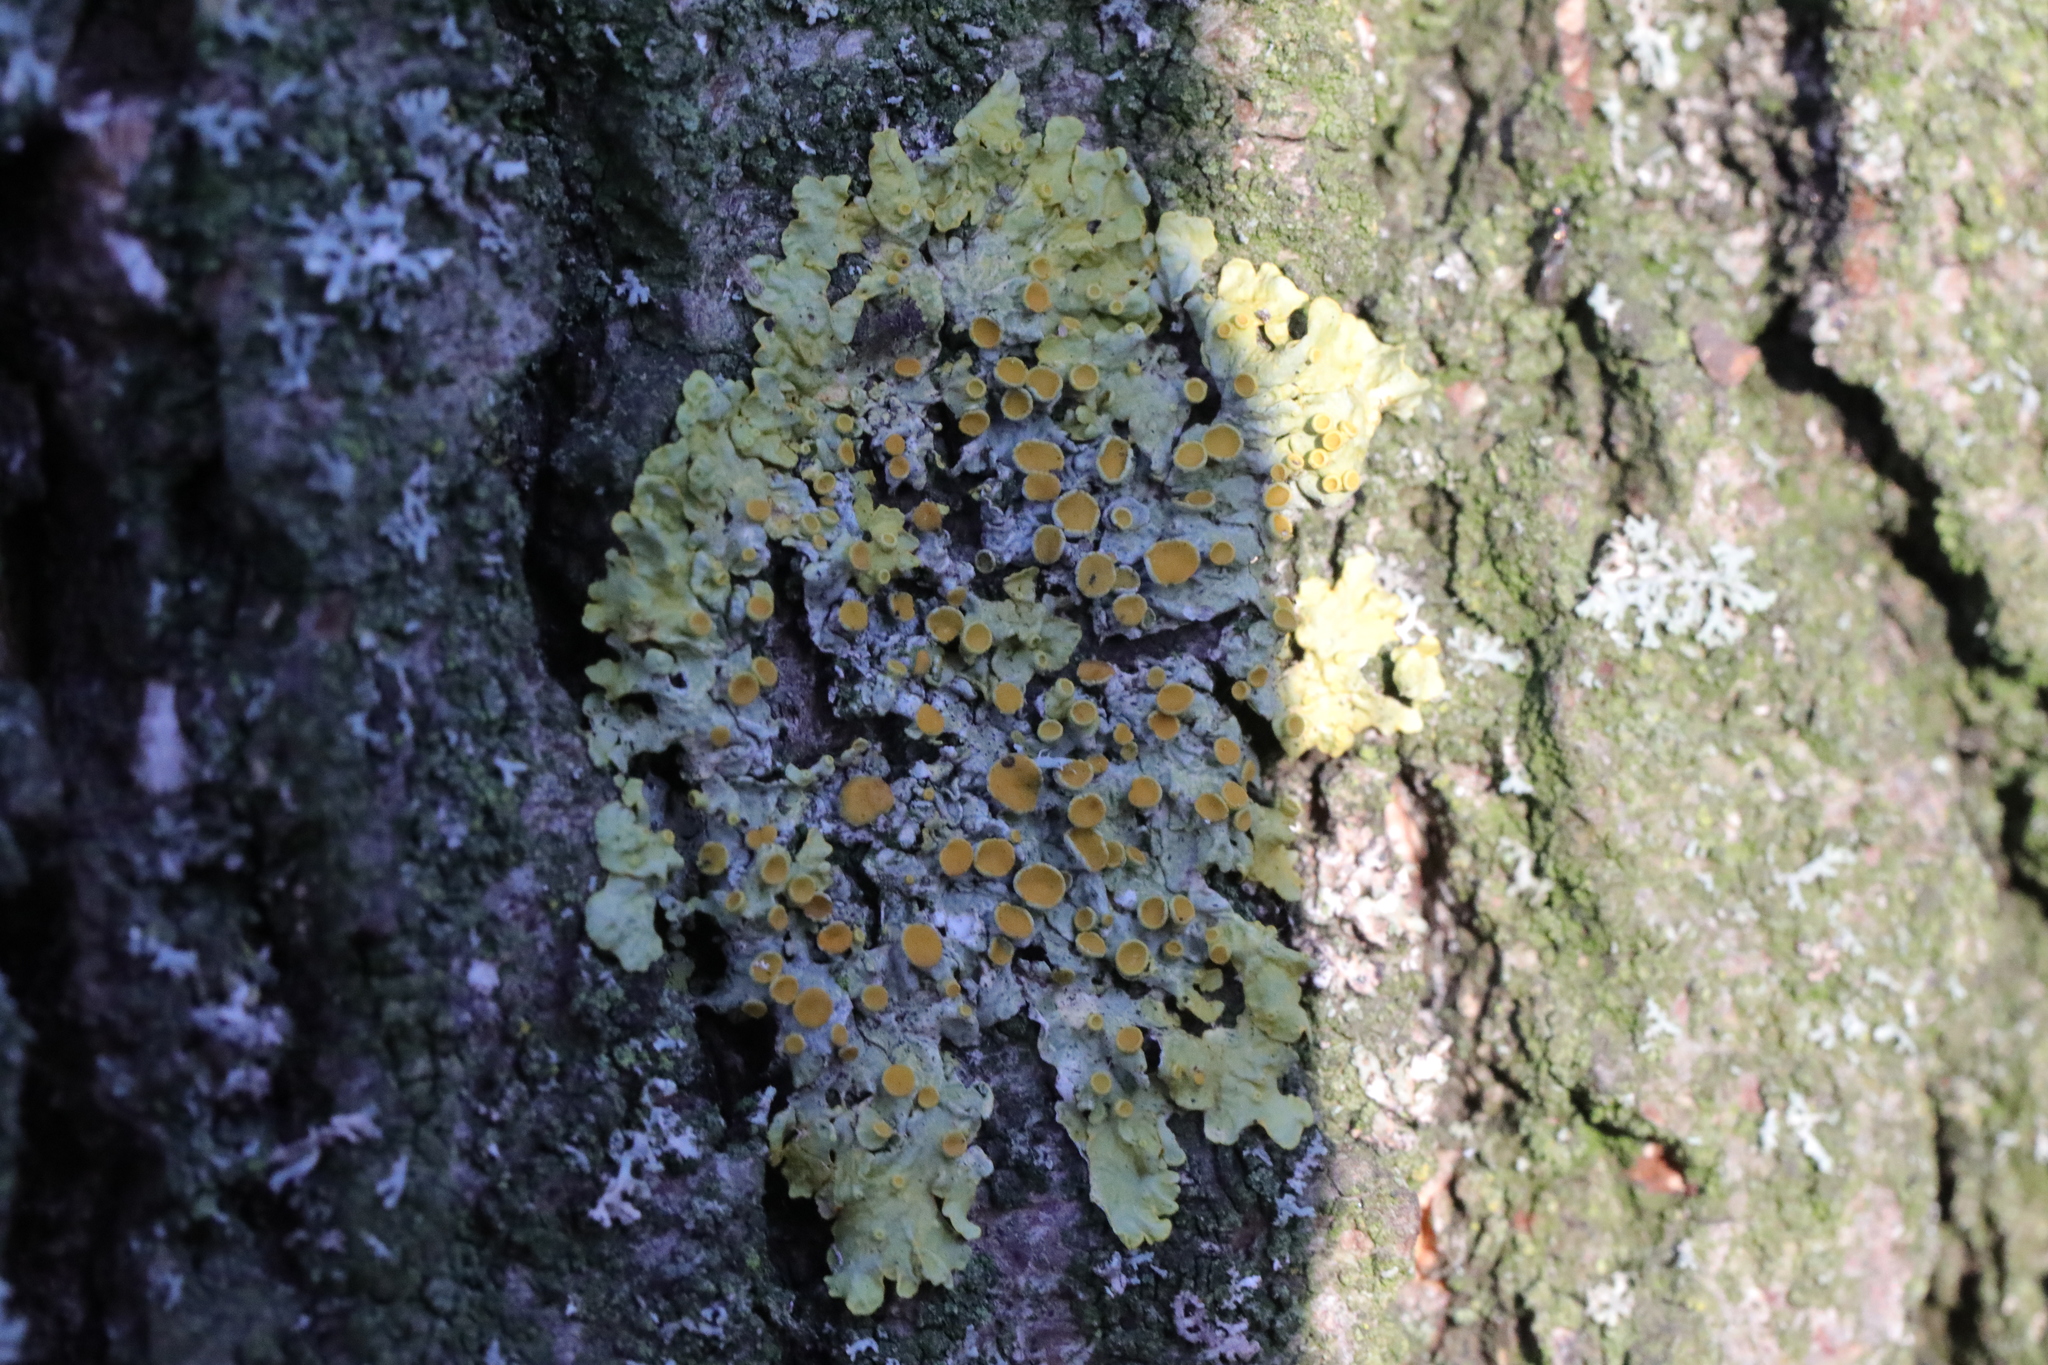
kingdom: Fungi
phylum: Ascomycota
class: Lecanoromycetes
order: Teloschistales
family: Teloschistaceae
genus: Xanthoria
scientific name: Xanthoria parietina
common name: Common orange lichen
